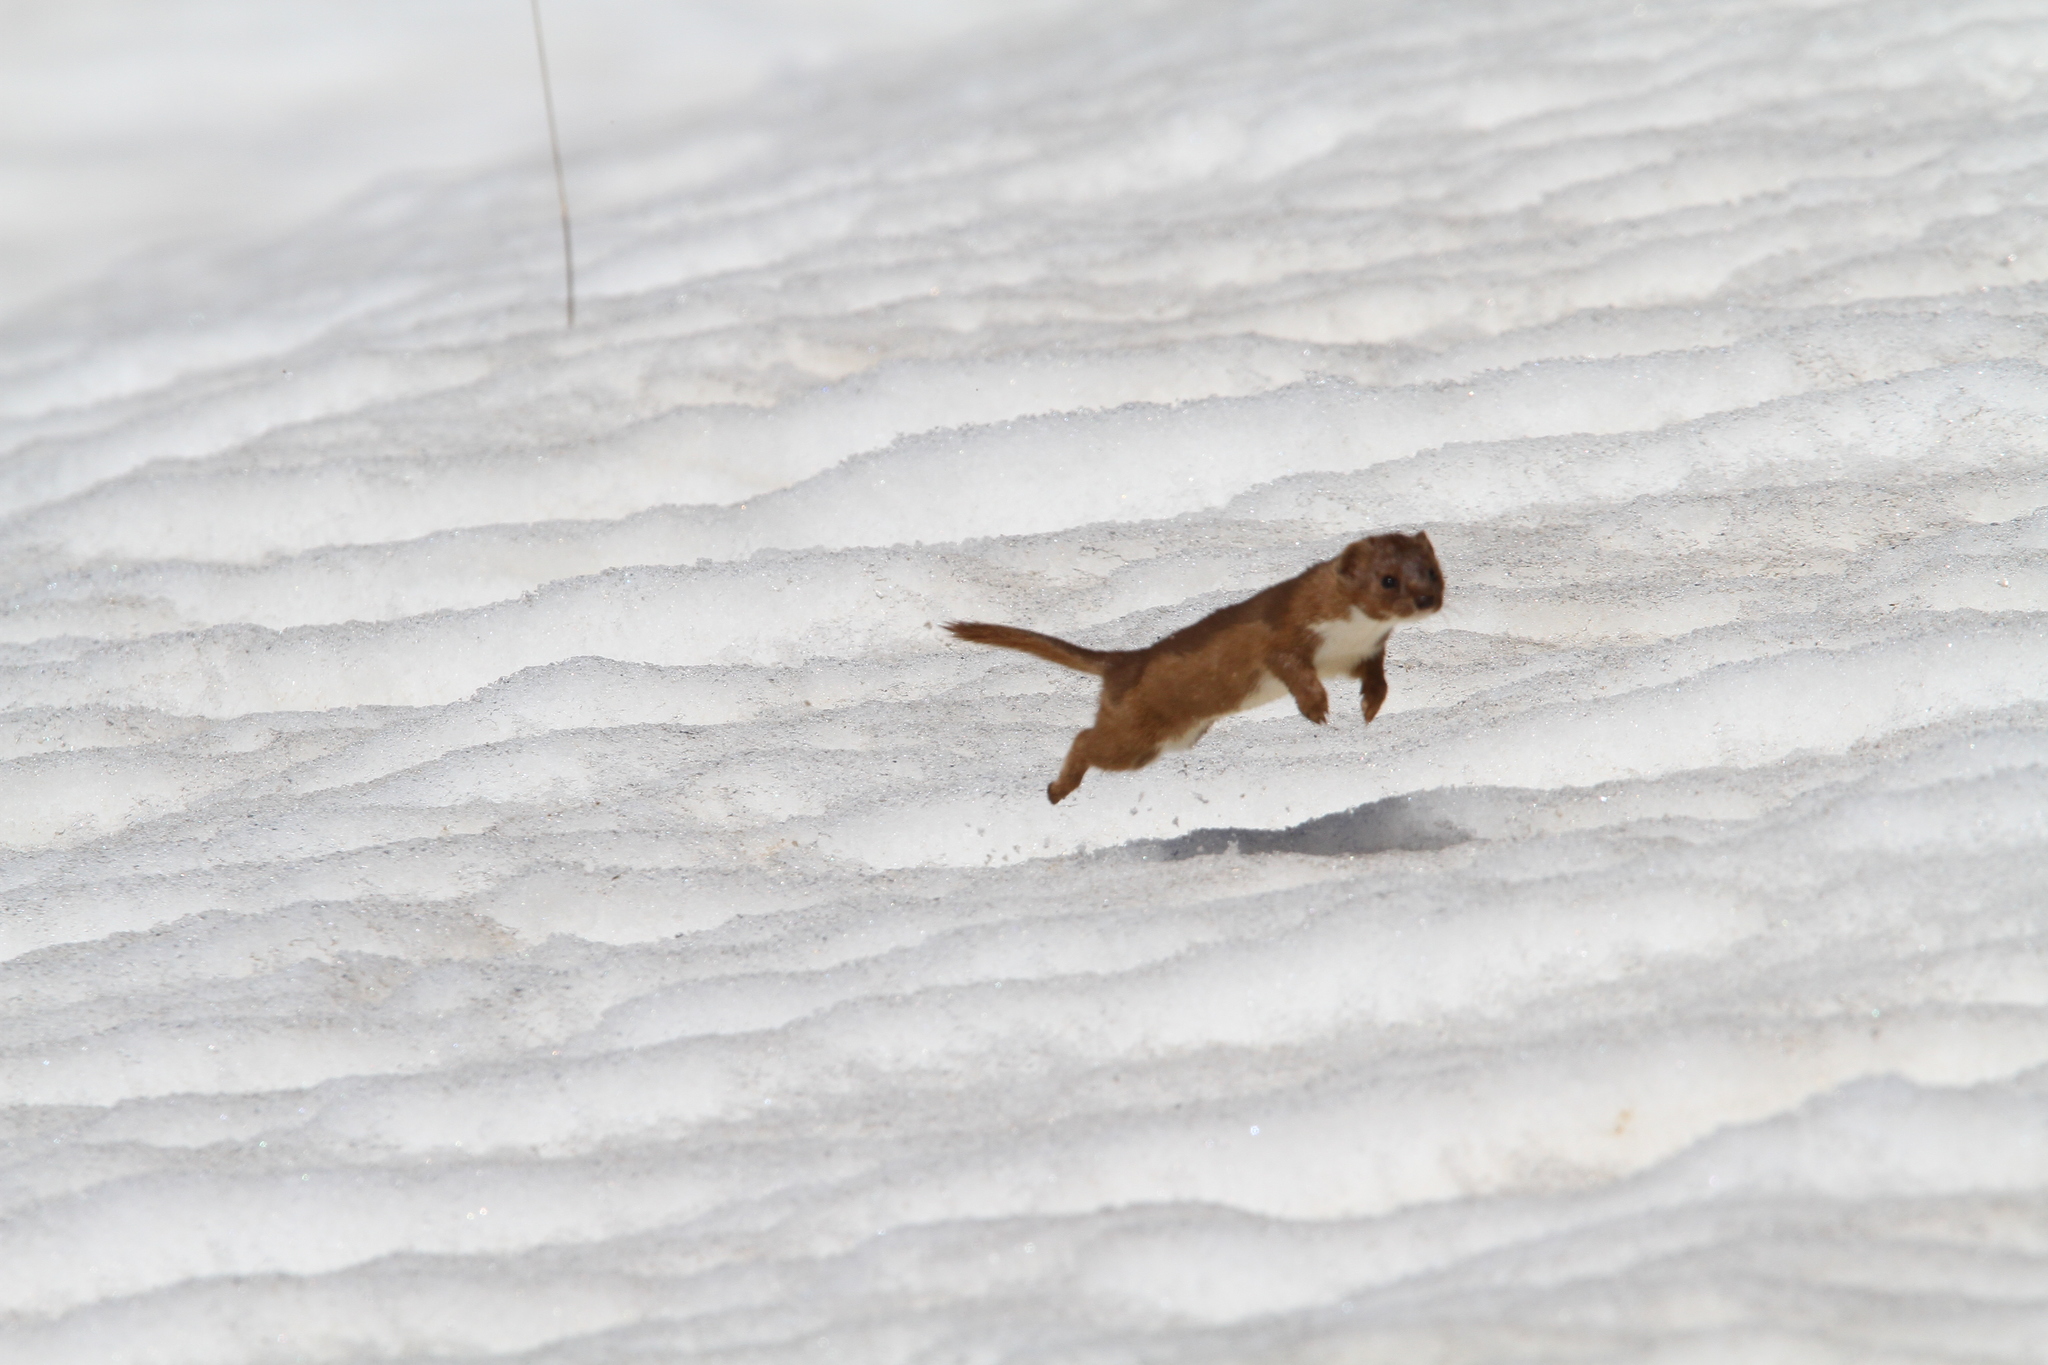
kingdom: Animalia
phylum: Chordata
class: Mammalia
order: Carnivora
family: Mustelidae
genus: Mustela
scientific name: Mustela nivalis
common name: Least weasel
